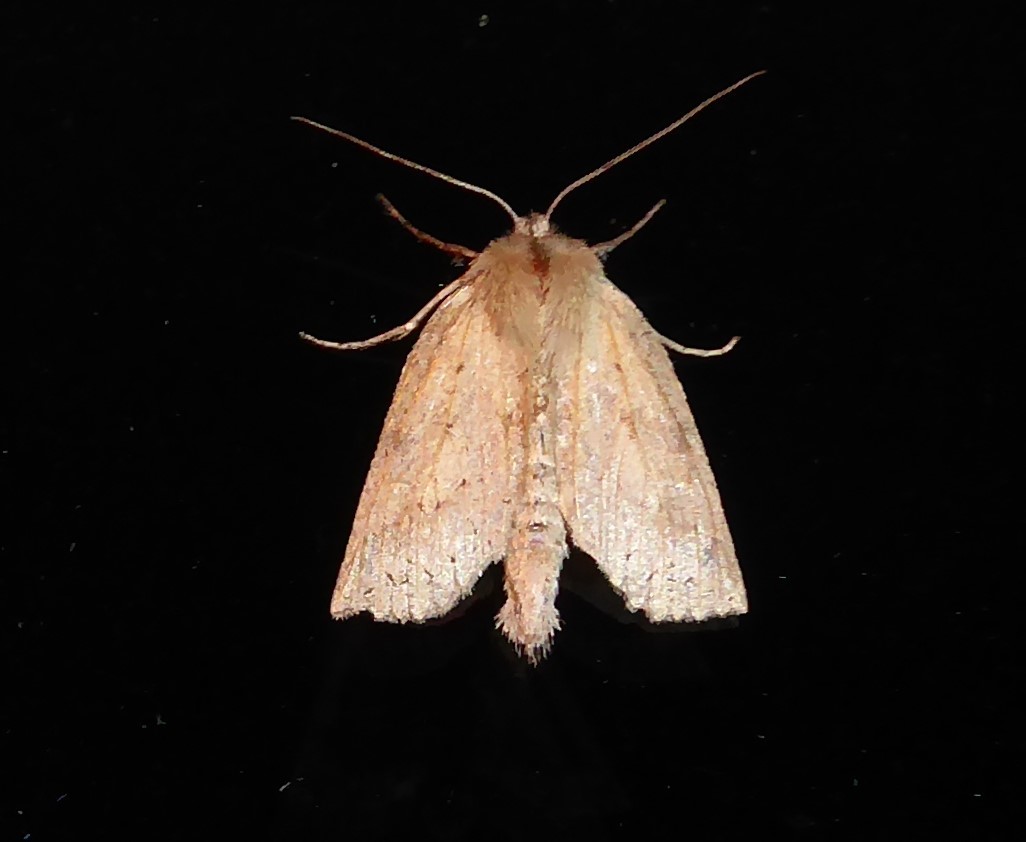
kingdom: Animalia
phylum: Arthropoda
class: Insecta
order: Lepidoptera
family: Geometridae
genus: Declana
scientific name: Declana leptomera
